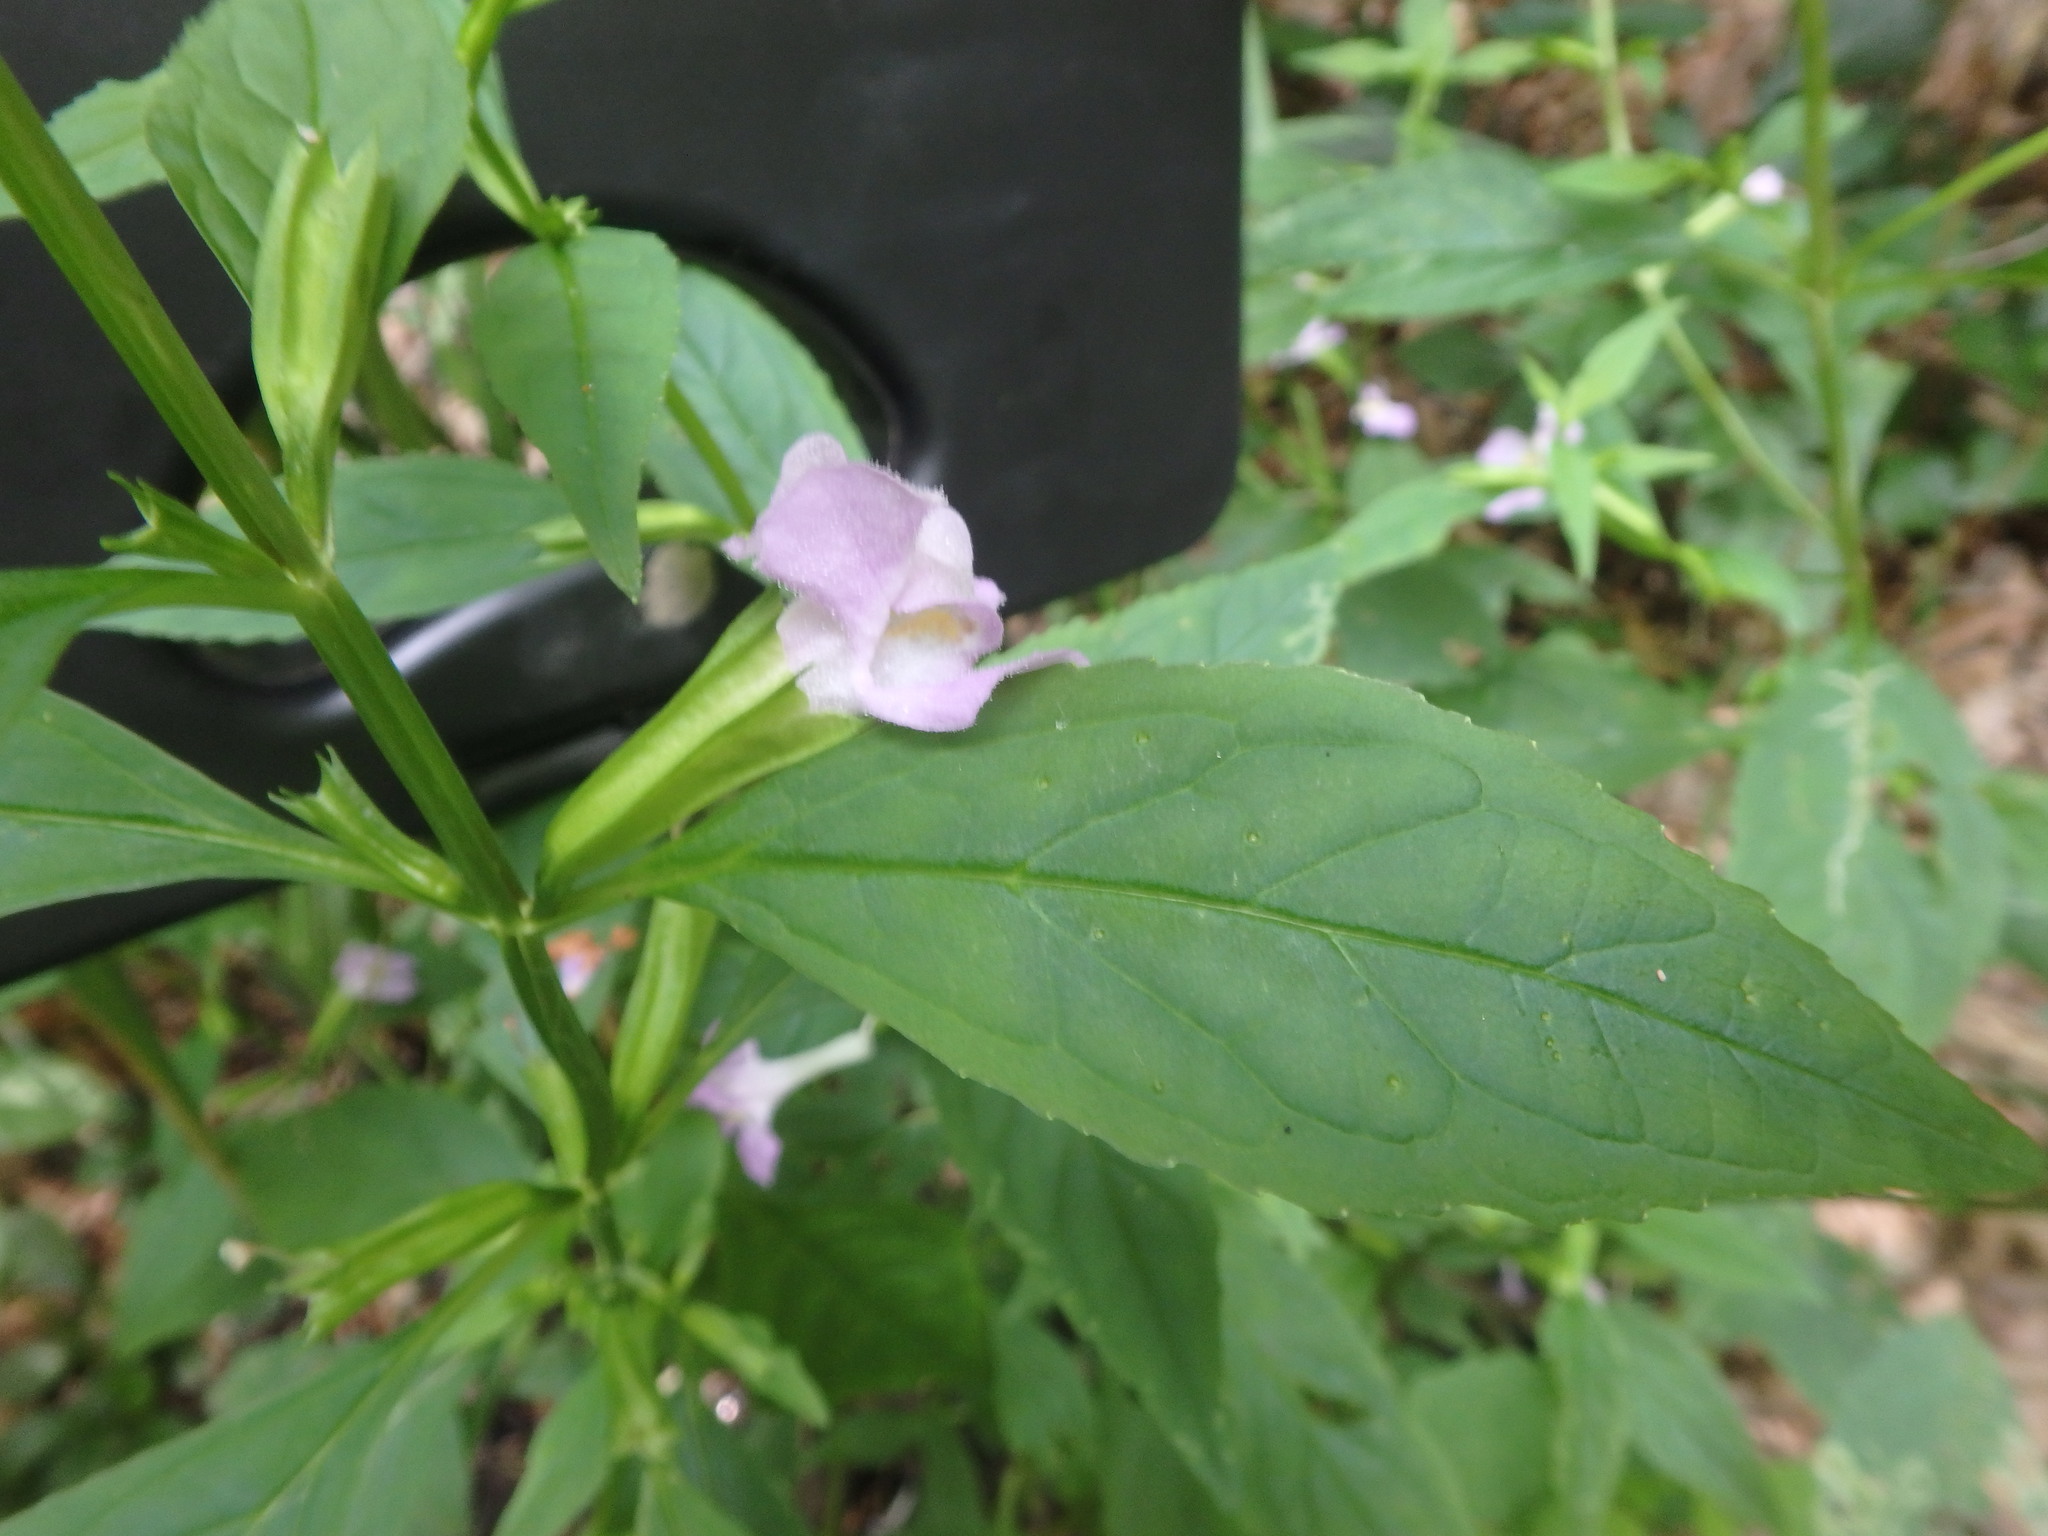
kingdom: Plantae
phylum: Tracheophyta
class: Magnoliopsida
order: Lamiales
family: Phrymaceae
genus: Mimulus
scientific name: Mimulus alatus
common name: Sharp-wing monkey-flower
